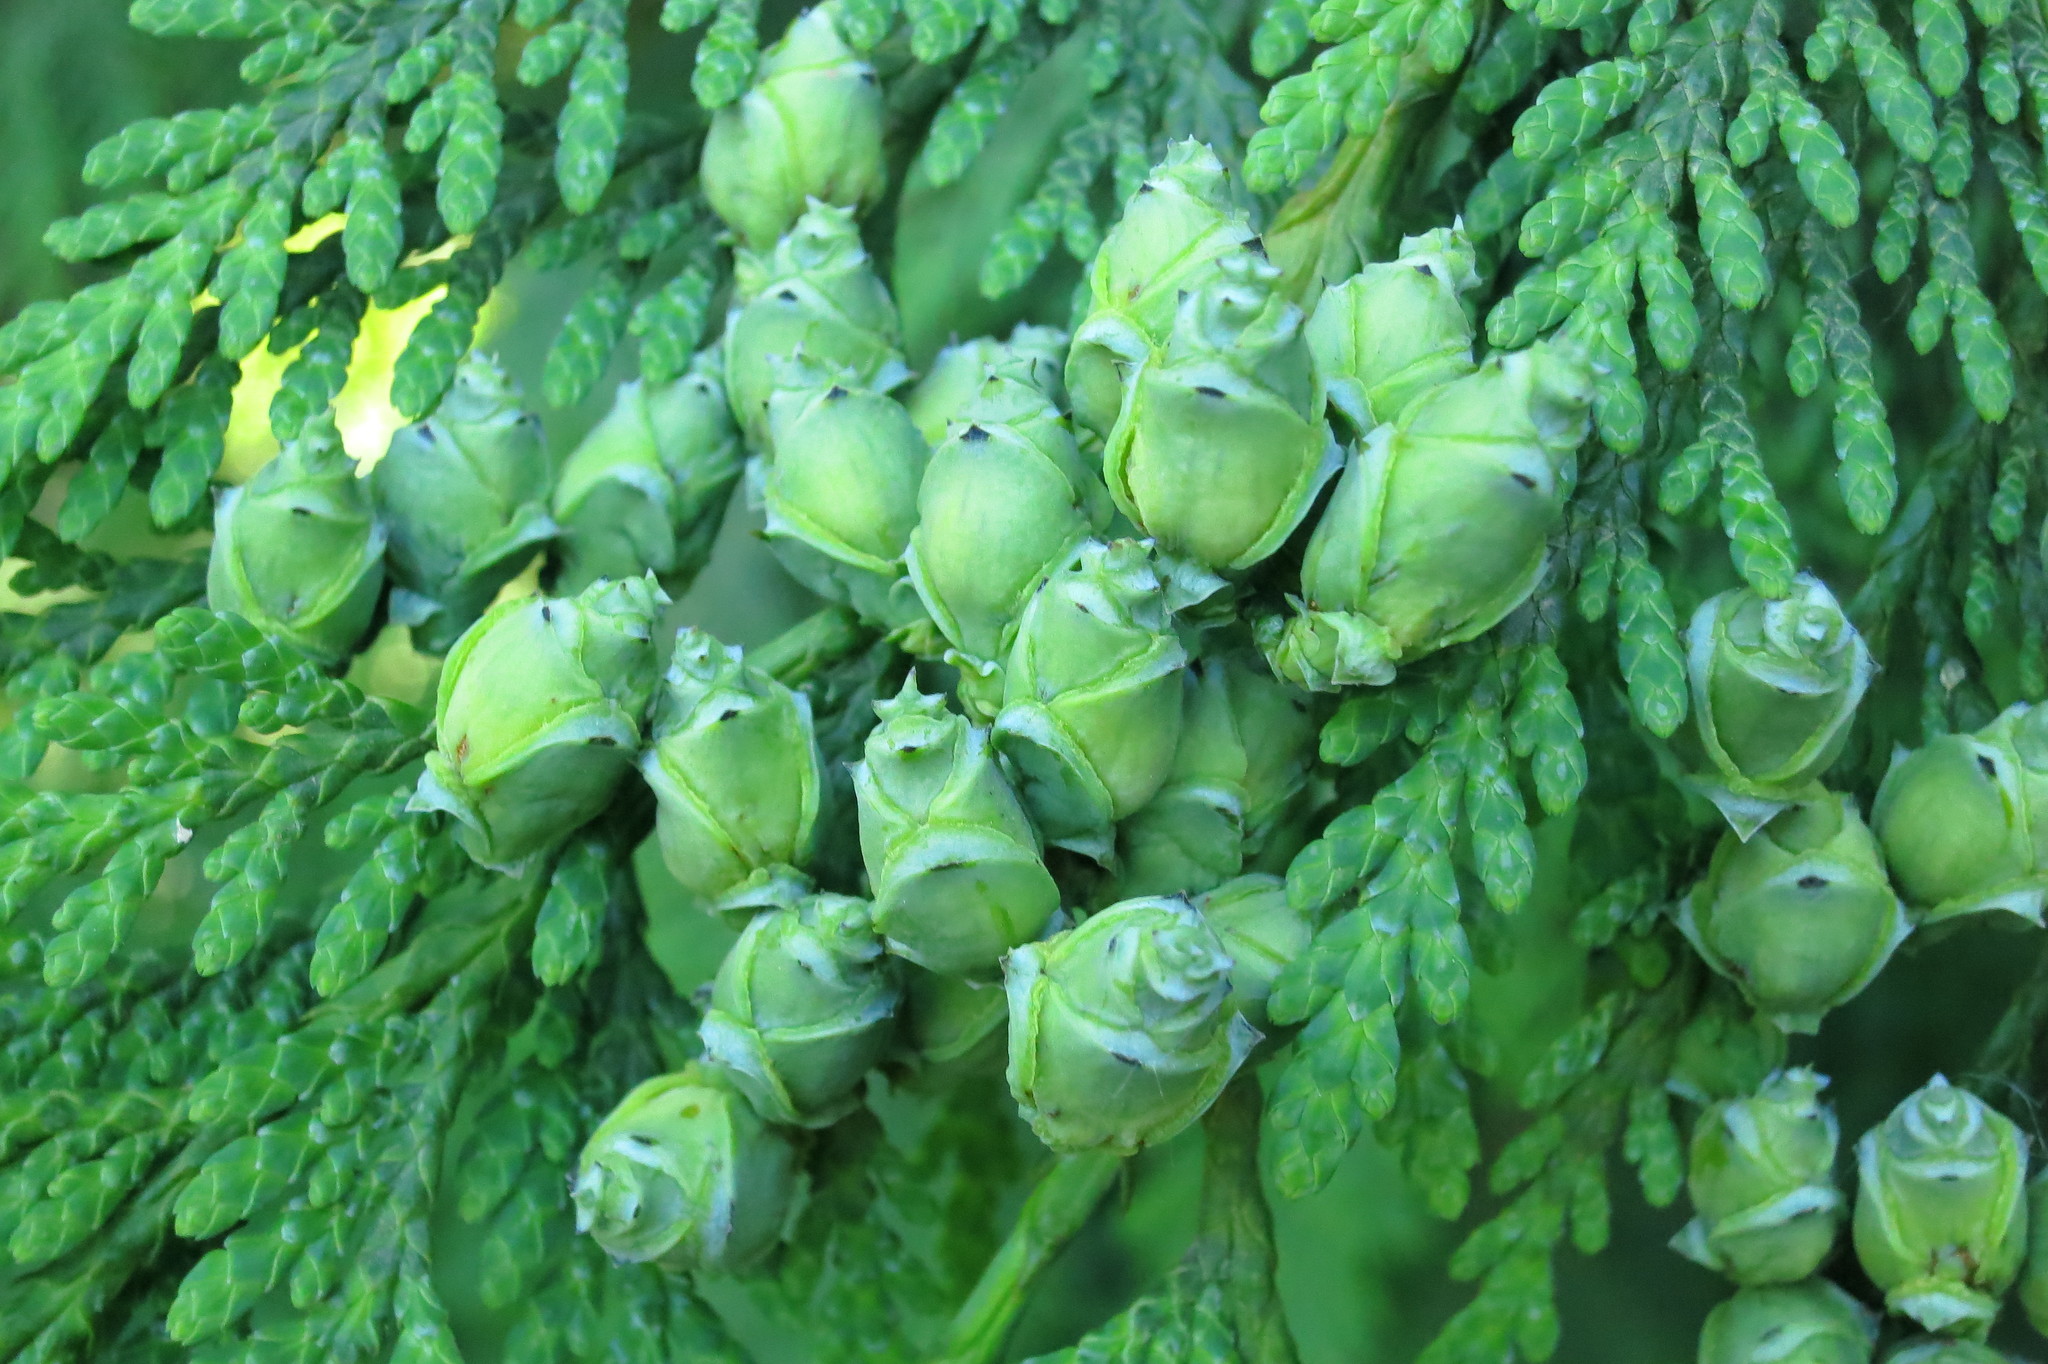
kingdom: Plantae
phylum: Tracheophyta
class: Pinopsida
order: Pinales
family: Cupressaceae
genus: Thuja
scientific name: Thuja plicata
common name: Western red-cedar
